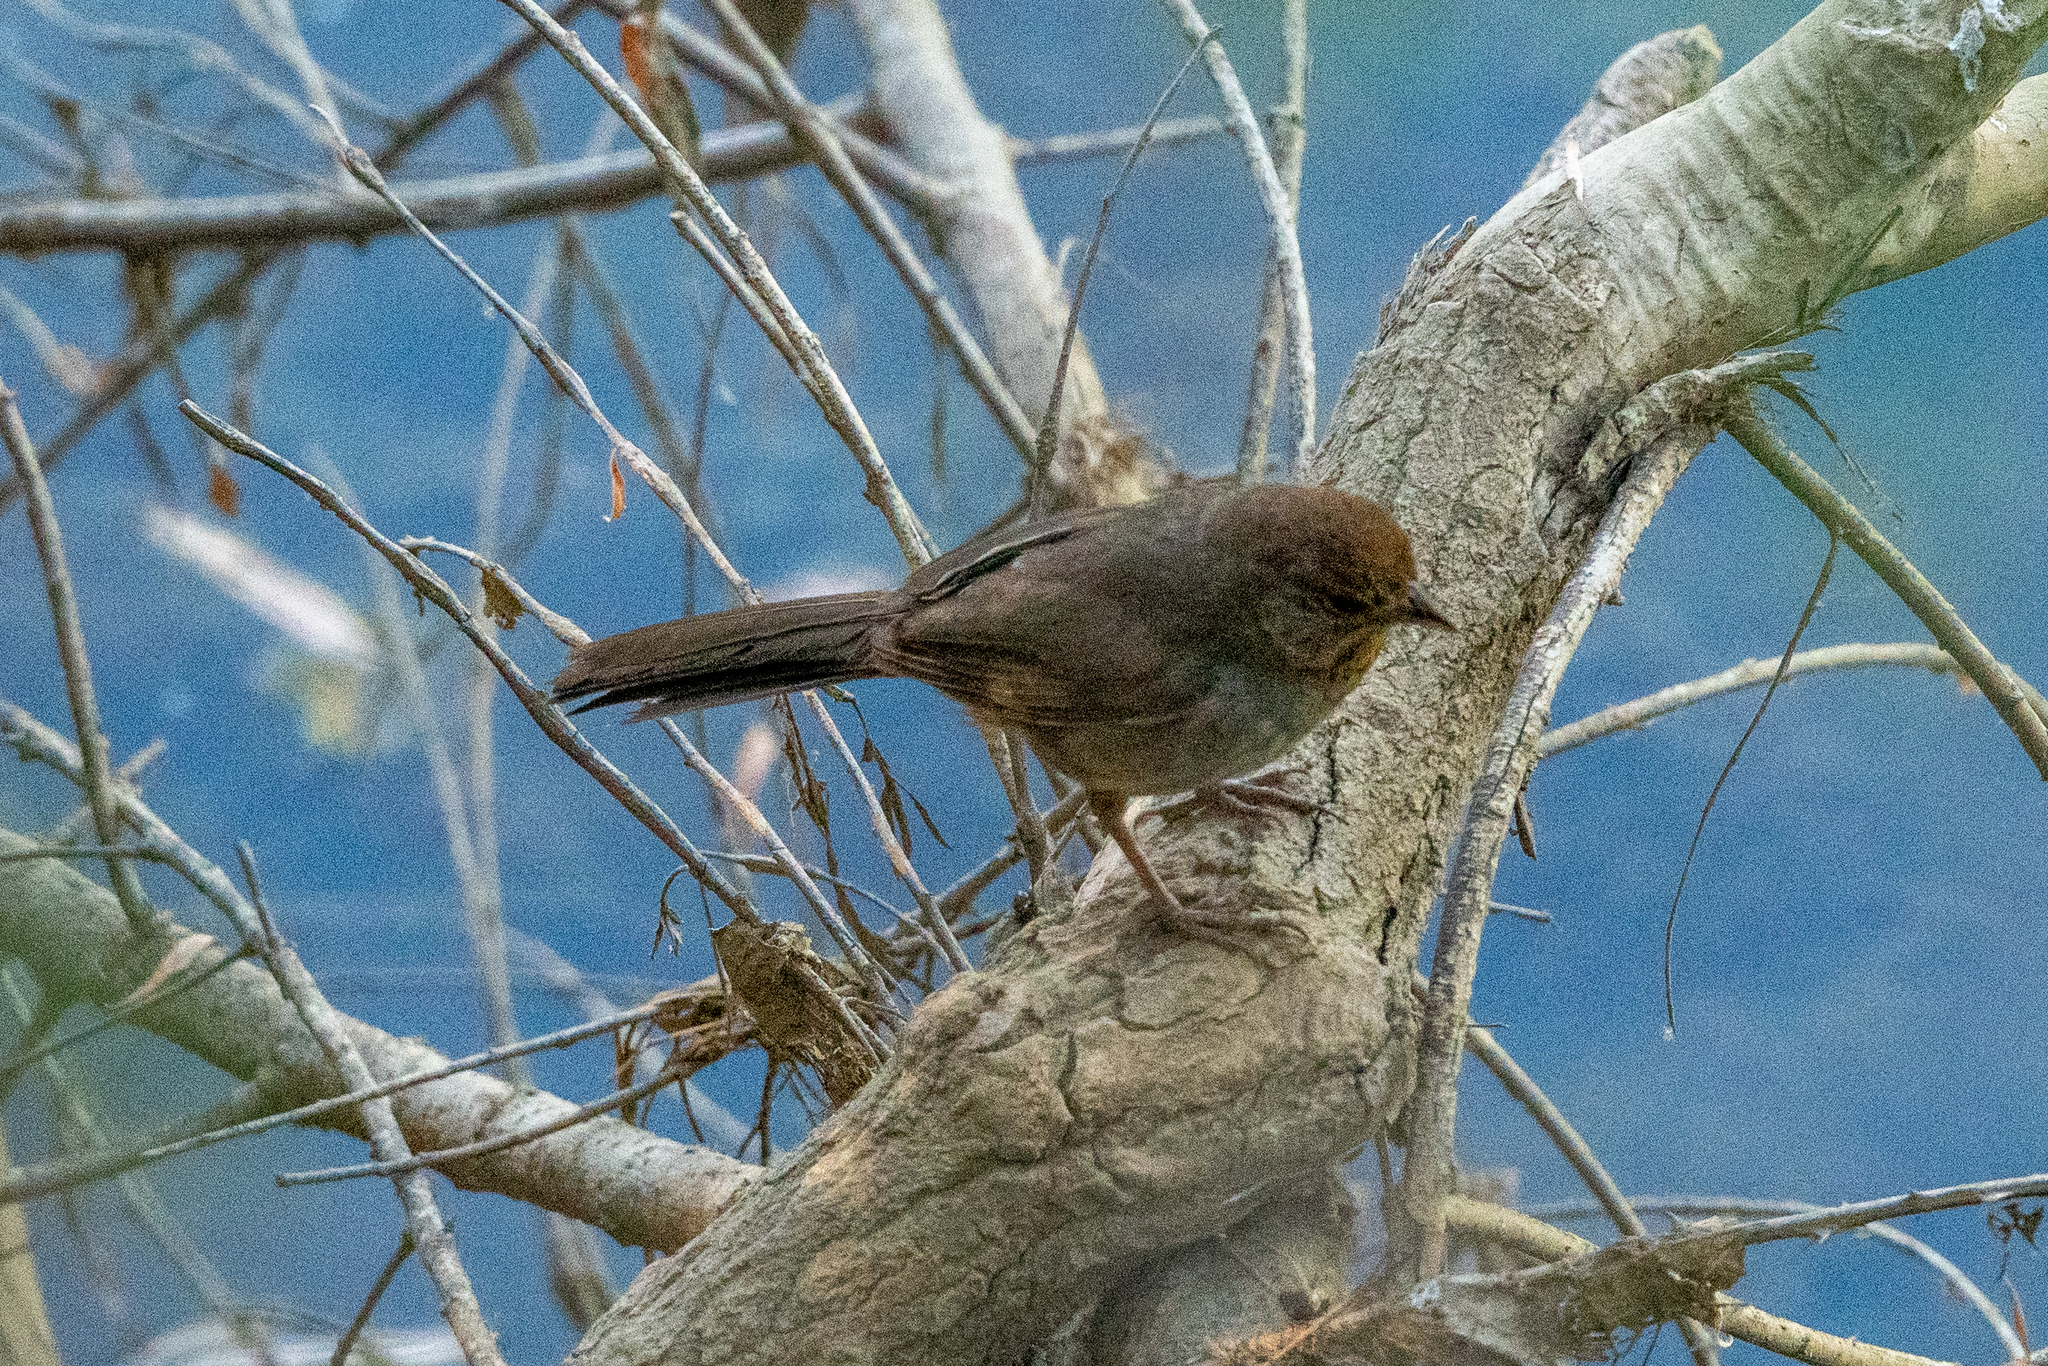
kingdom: Animalia
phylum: Chordata
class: Aves
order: Passeriformes
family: Passerellidae
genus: Melozone
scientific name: Melozone crissalis
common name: California towhee
